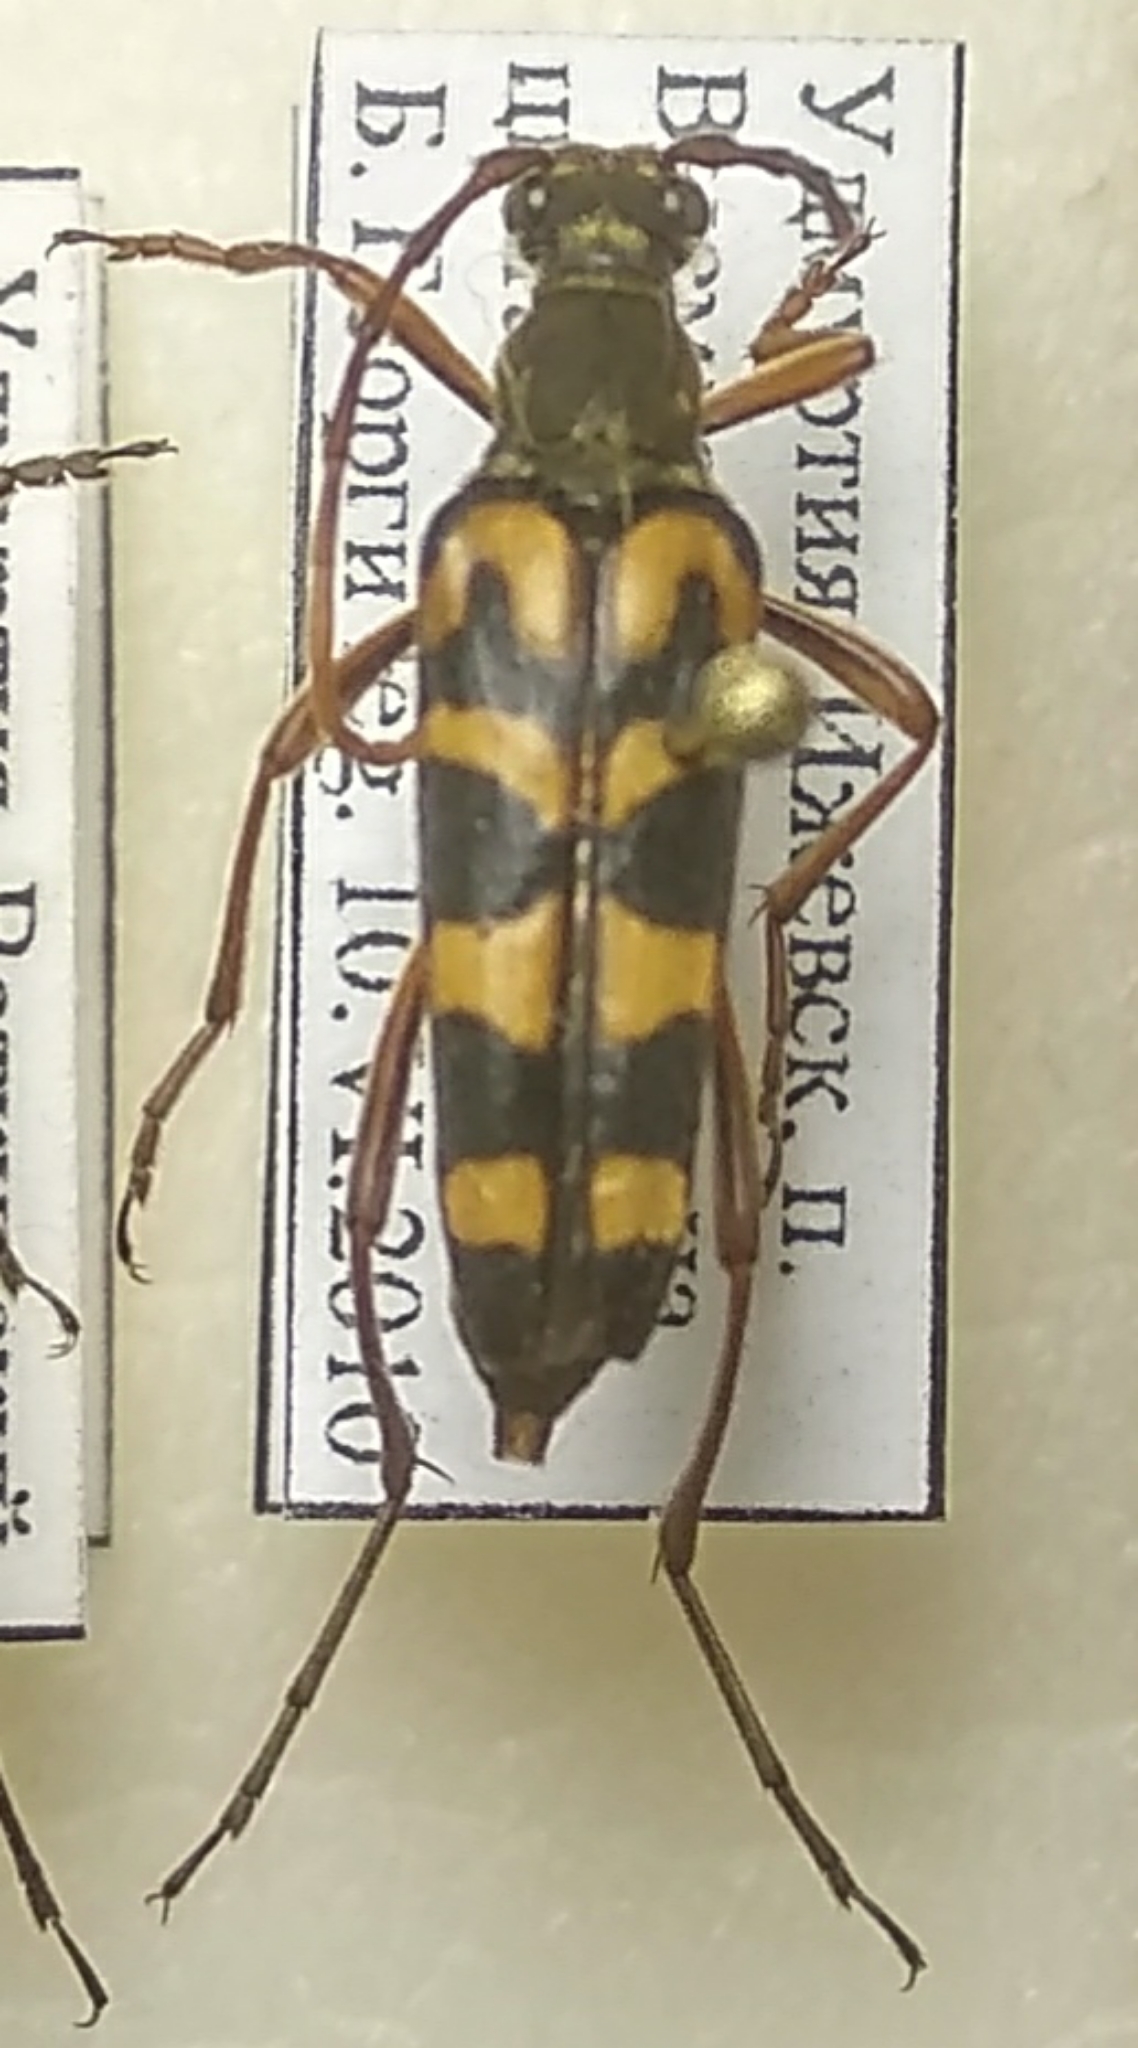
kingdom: Animalia
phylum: Arthropoda
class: Insecta
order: Coleoptera
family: Cerambycidae
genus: Leptura
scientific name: Leptura annularis
